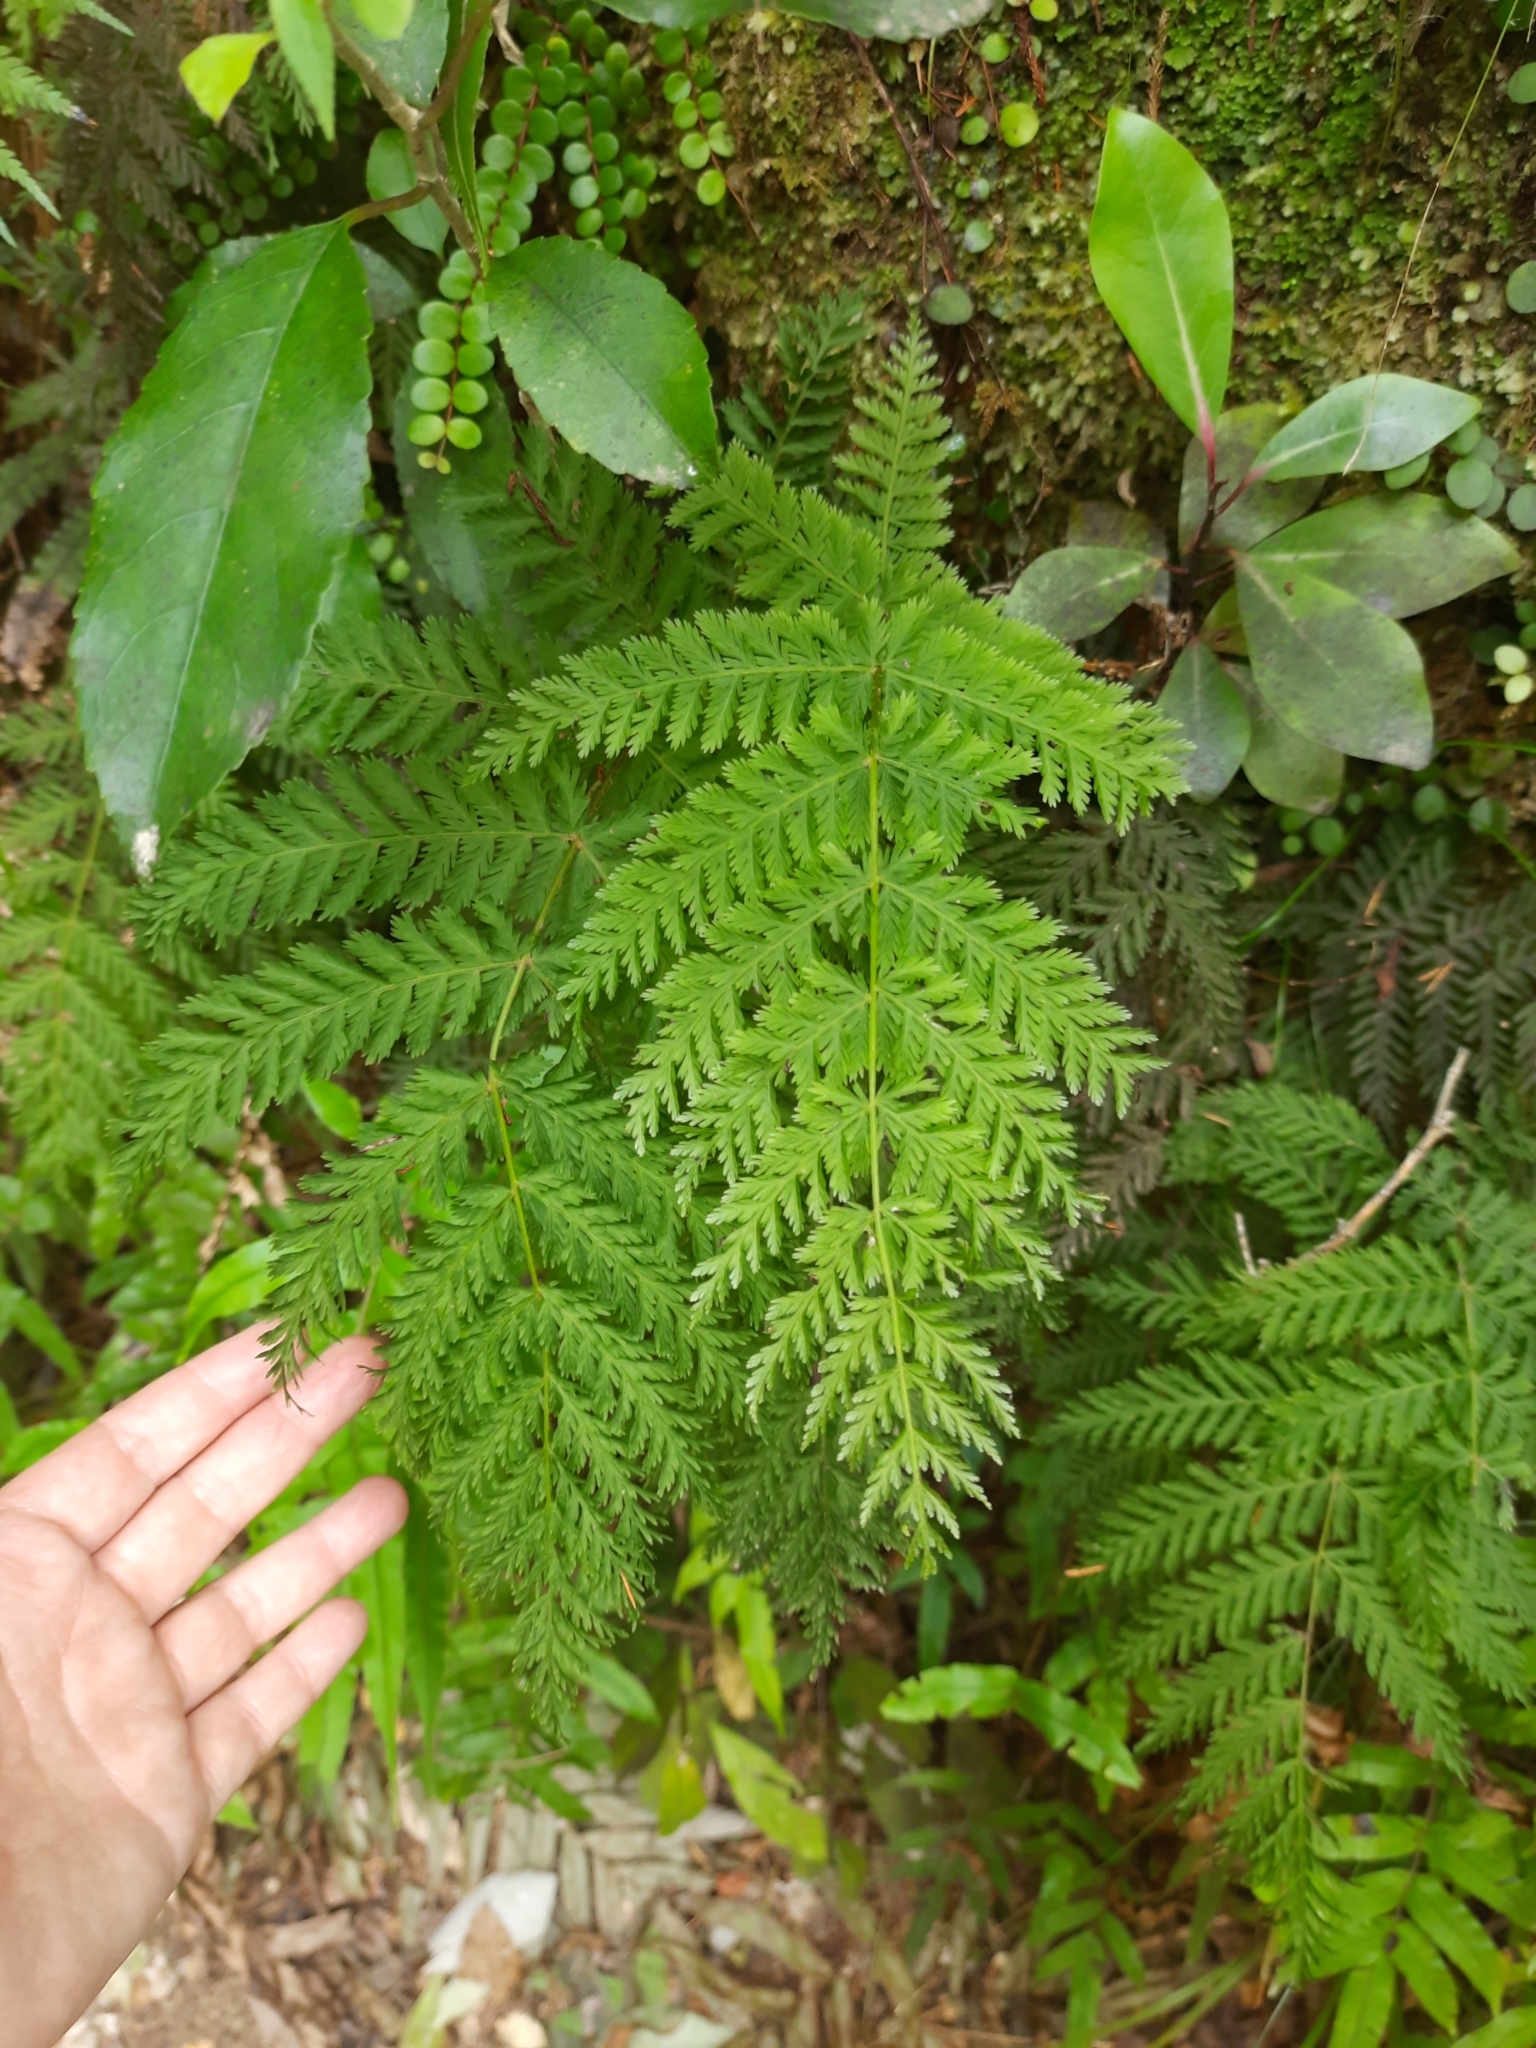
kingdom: Plantae
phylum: Tracheophyta
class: Polypodiopsida
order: Osmundales
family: Osmundaceae
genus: Leptopteris
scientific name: Leptopteris hymenophylloides
